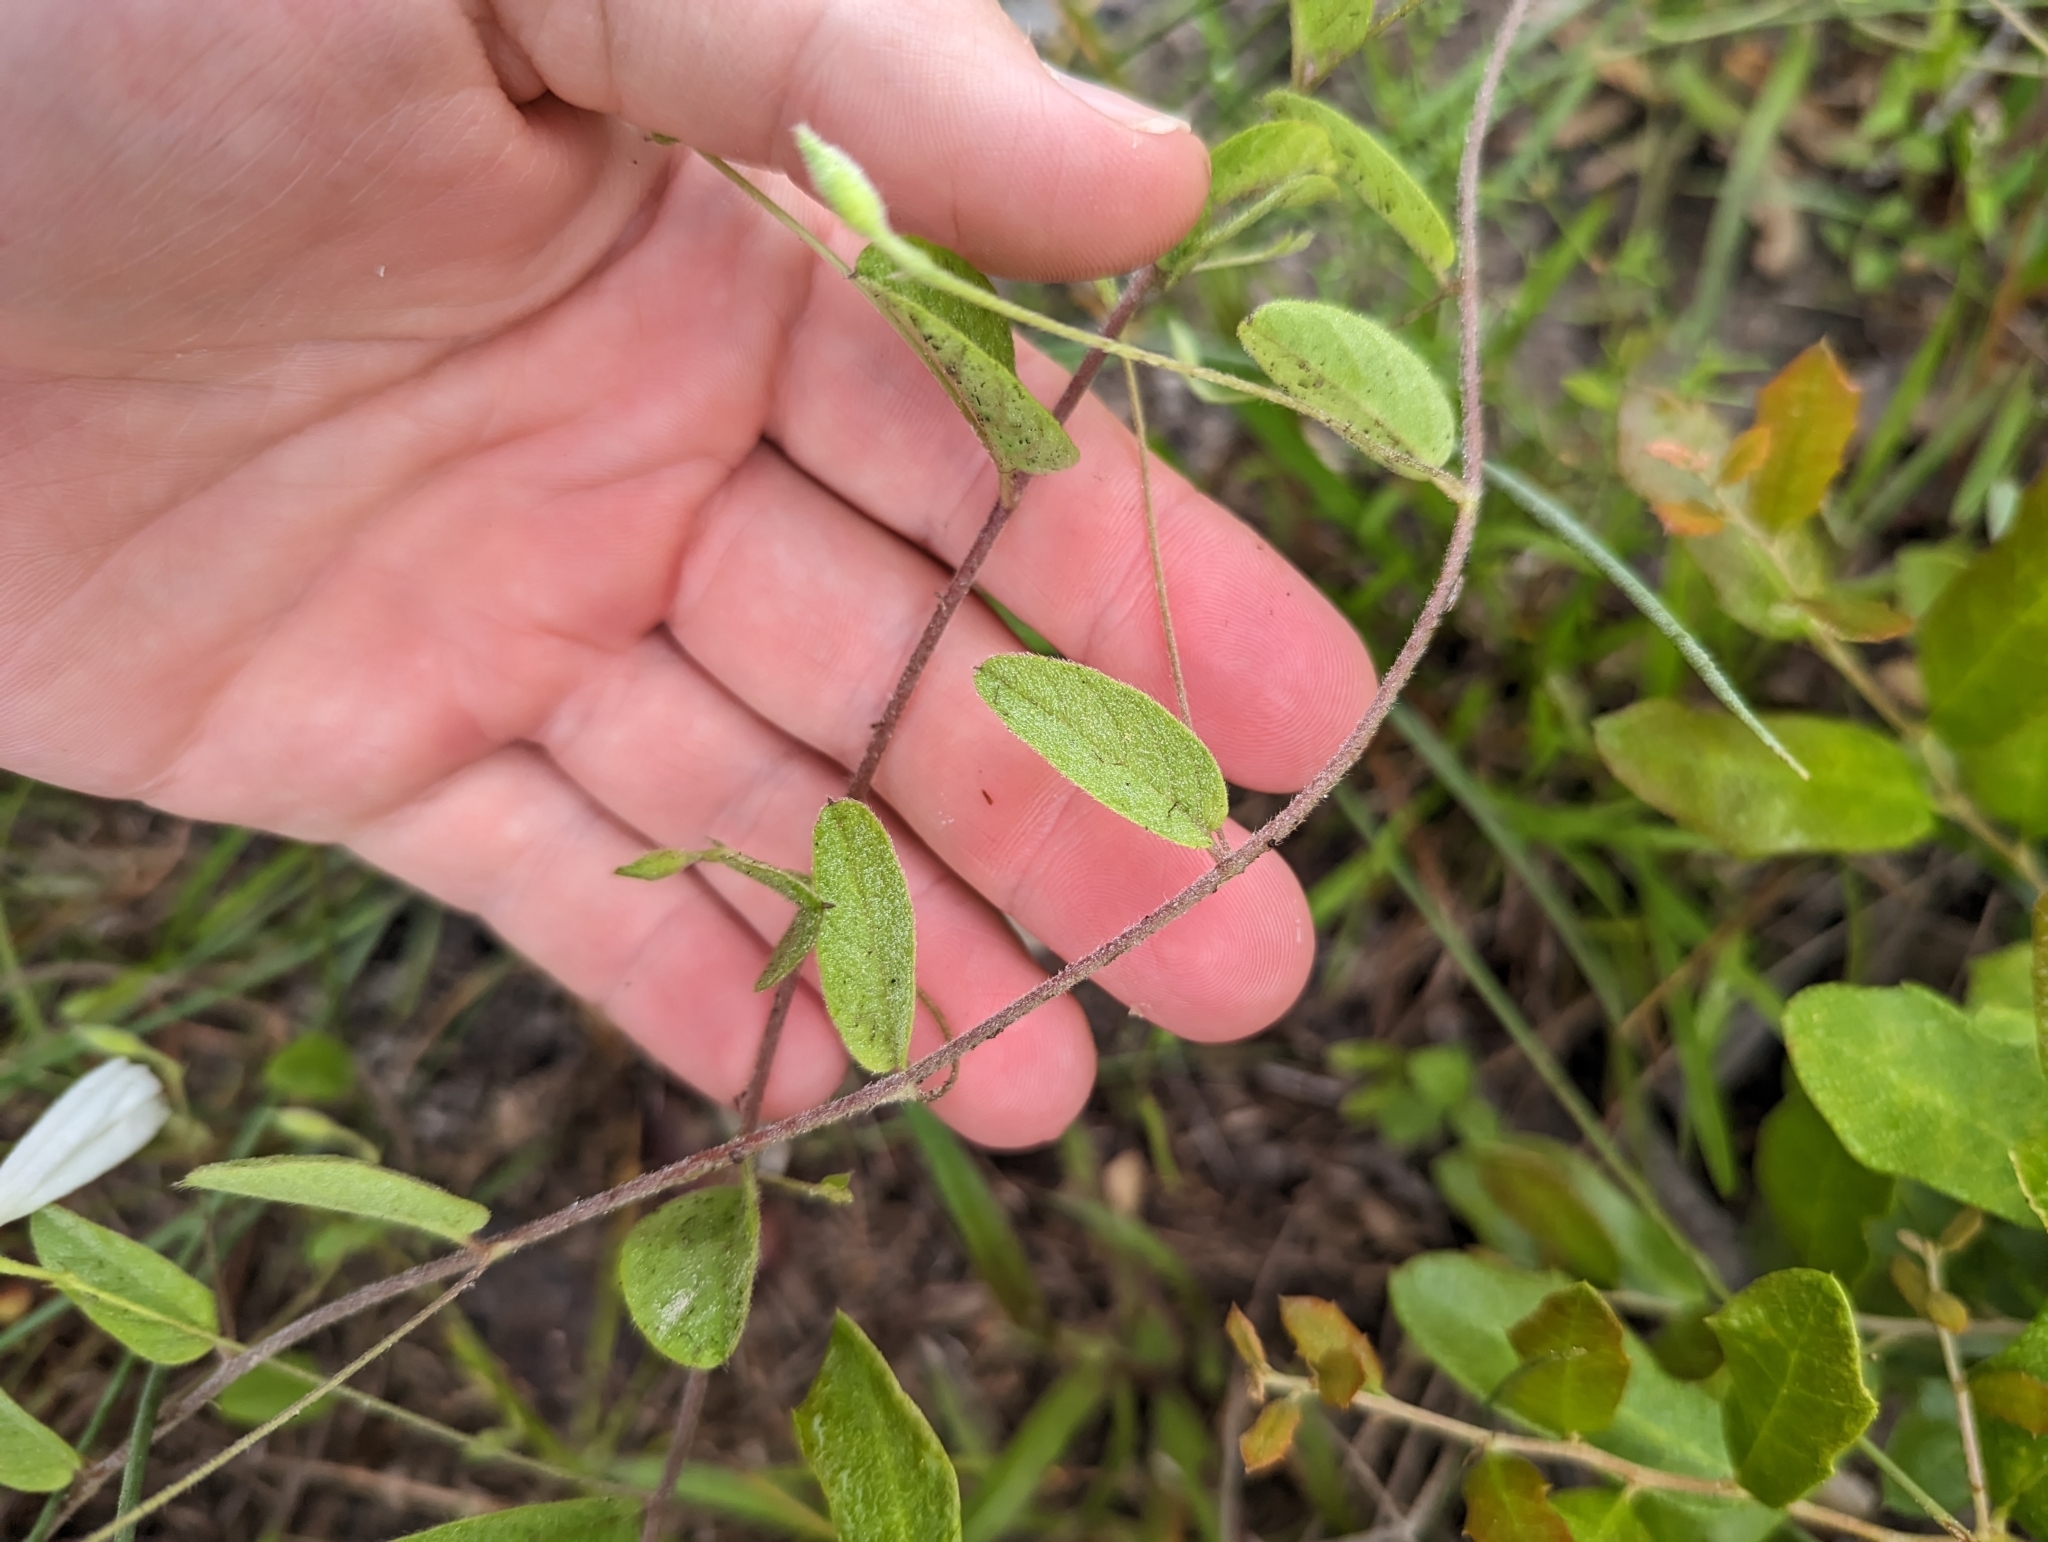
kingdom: Plantae
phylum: Tracheophyta
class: Magnoliopsida
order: Solanales
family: Convolvulaceae
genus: Stylisma
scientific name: Stylisma villosa
